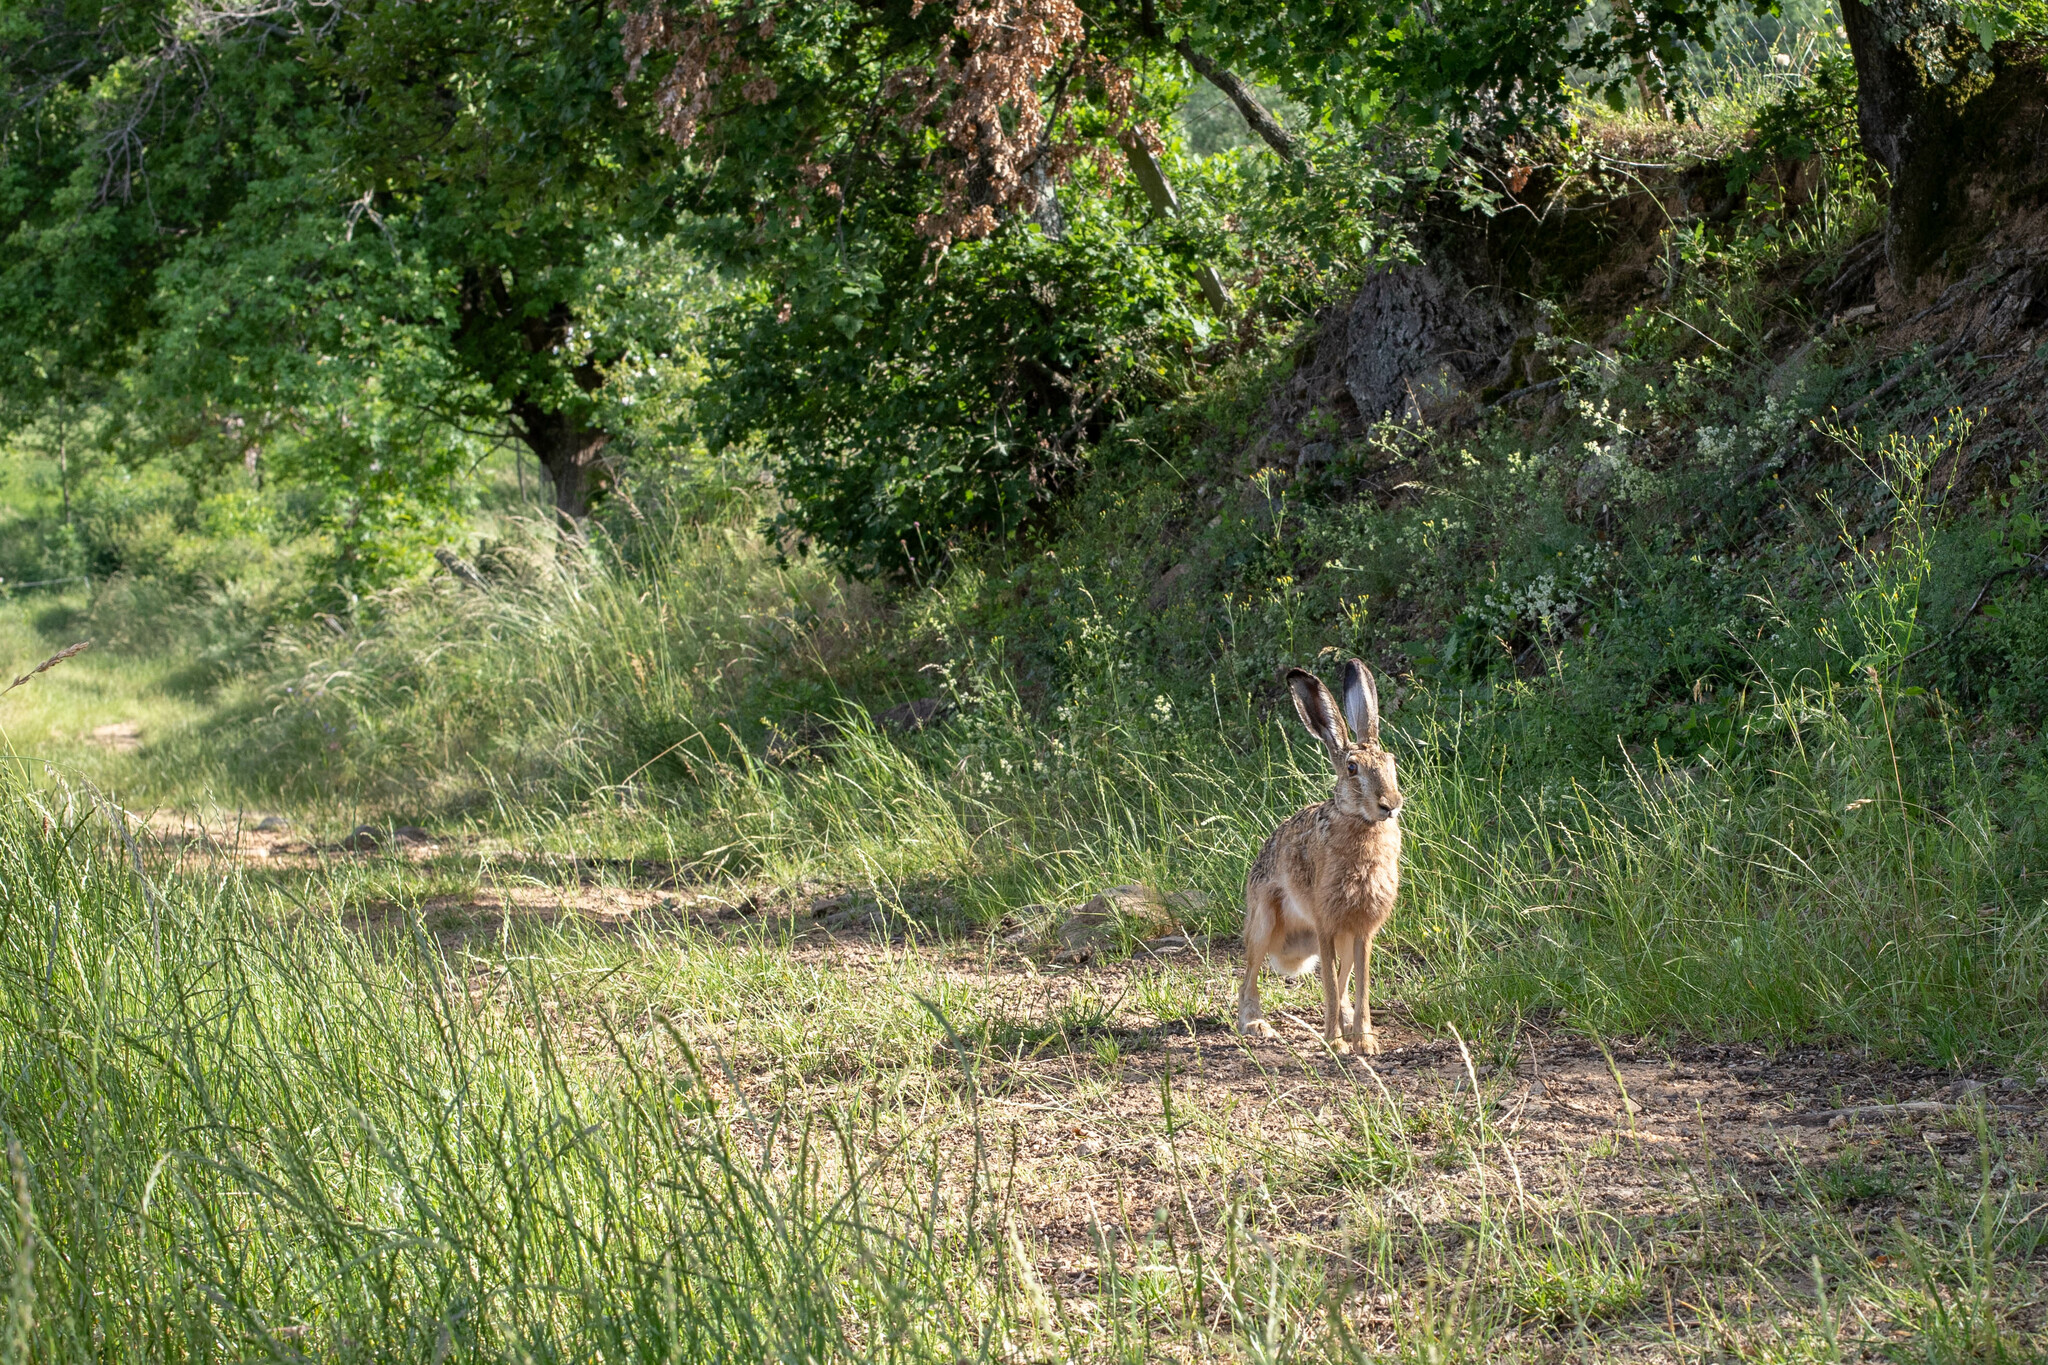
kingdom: Animalia
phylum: Chordata
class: Mammalia
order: Lagomorpha
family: Leporidae
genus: Lepus
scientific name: Lepus europaeus
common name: European hare
